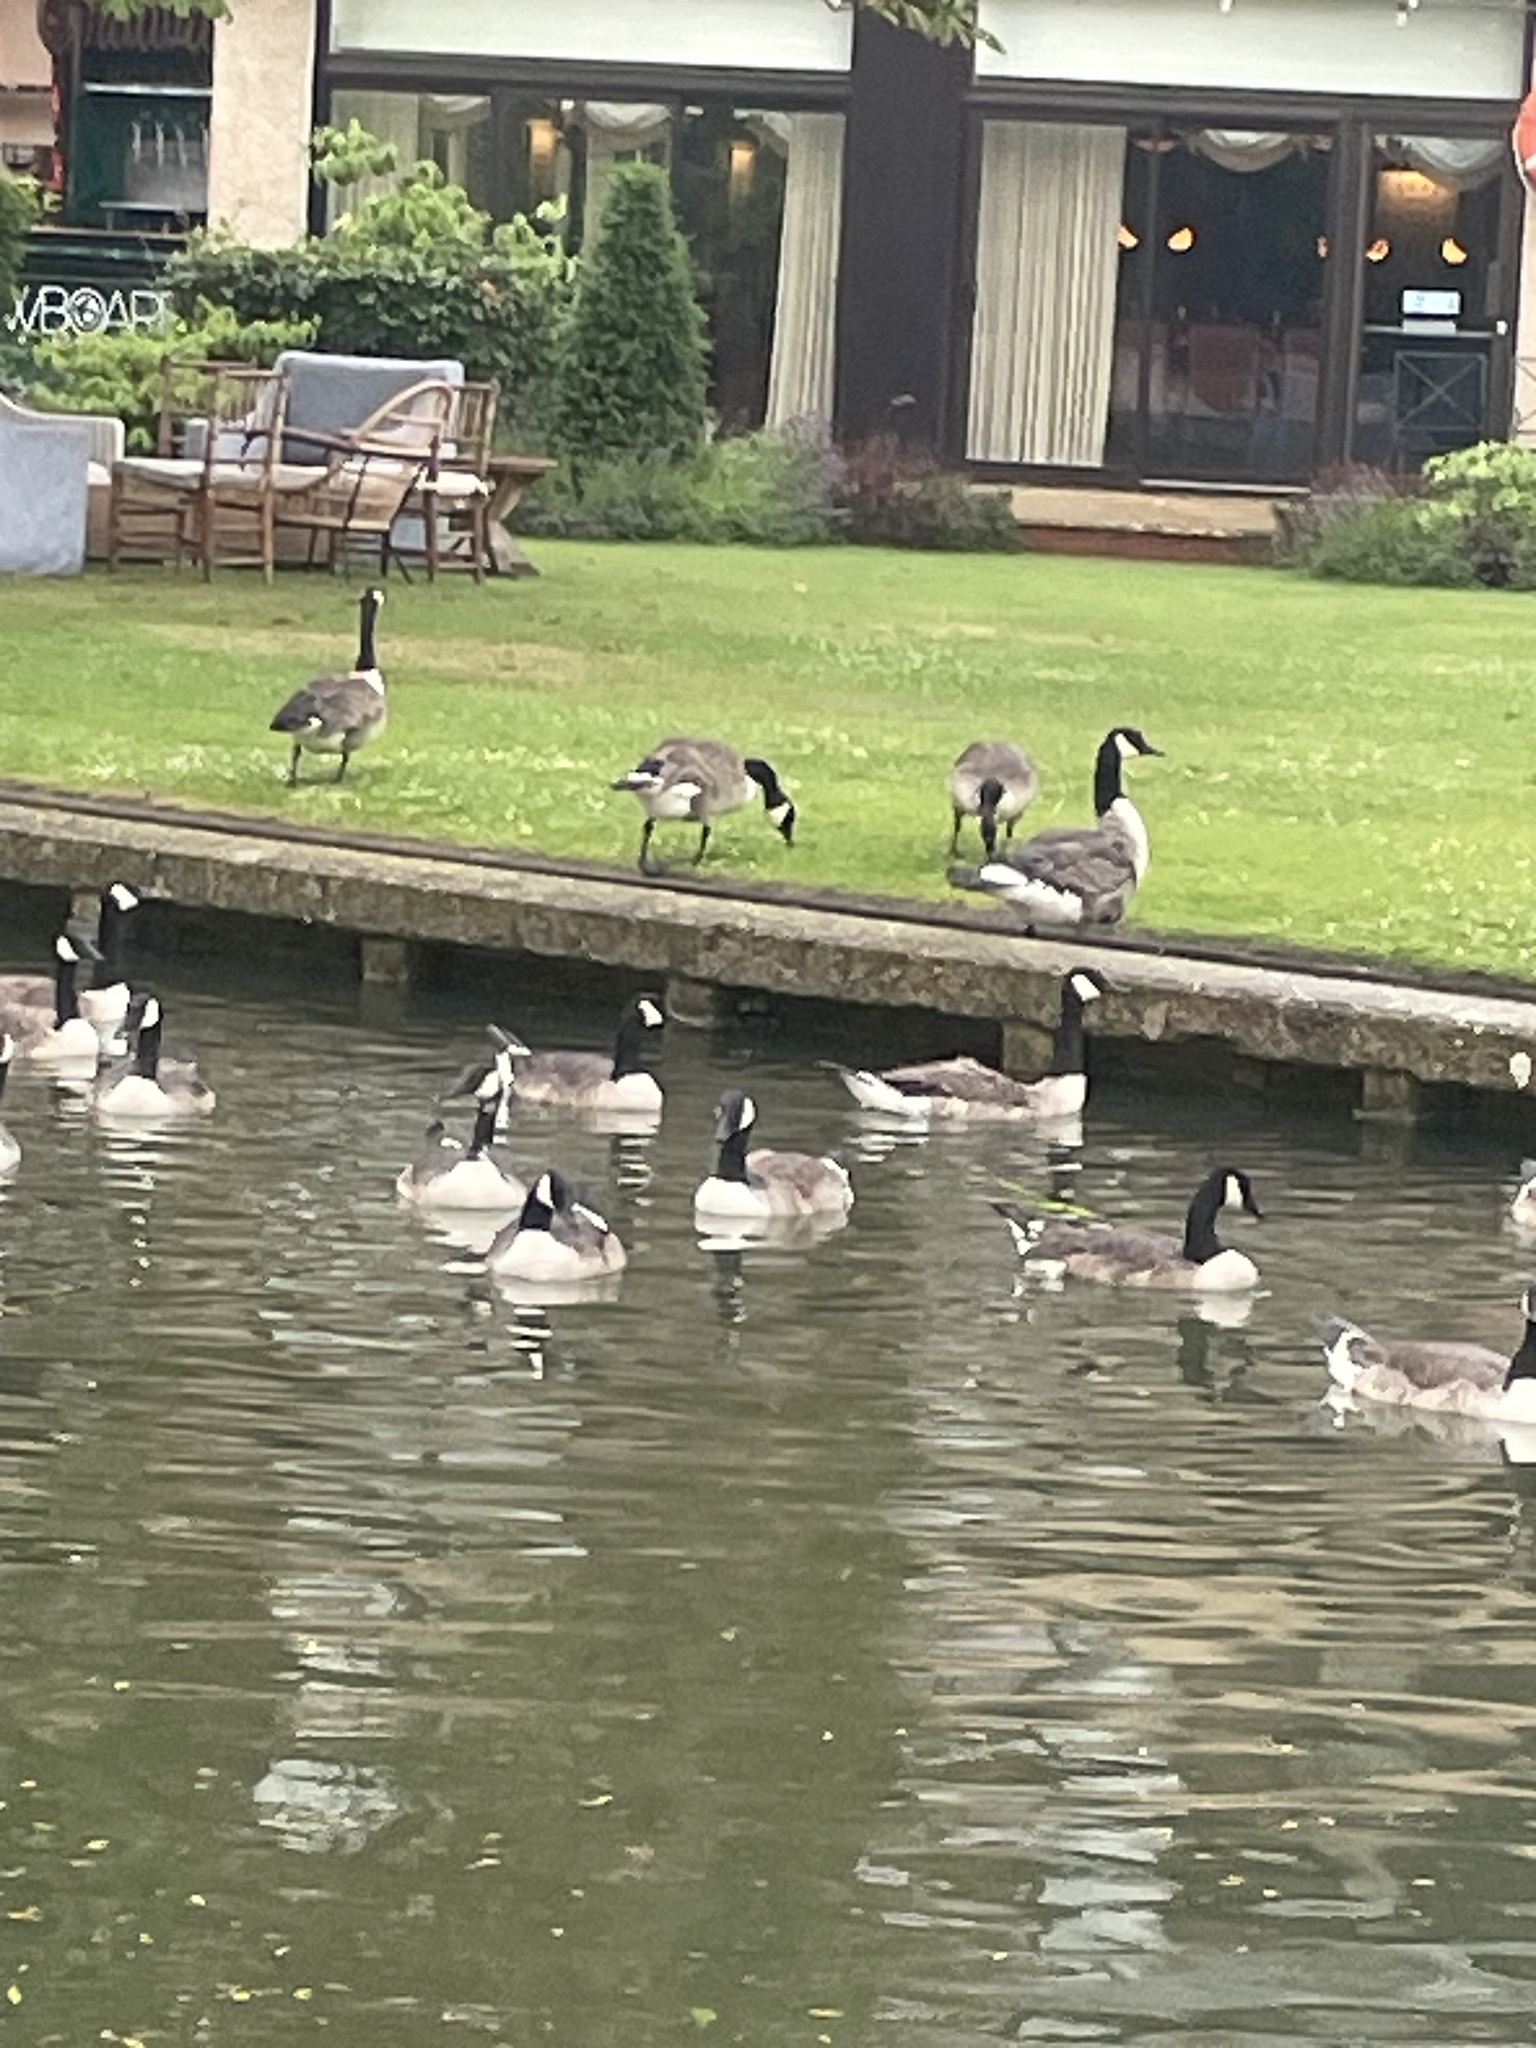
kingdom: Animalia
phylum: Chordata
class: Aves
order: Anseriformes
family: Anatidae
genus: Branta
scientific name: Branta canadensis
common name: Canada goose
